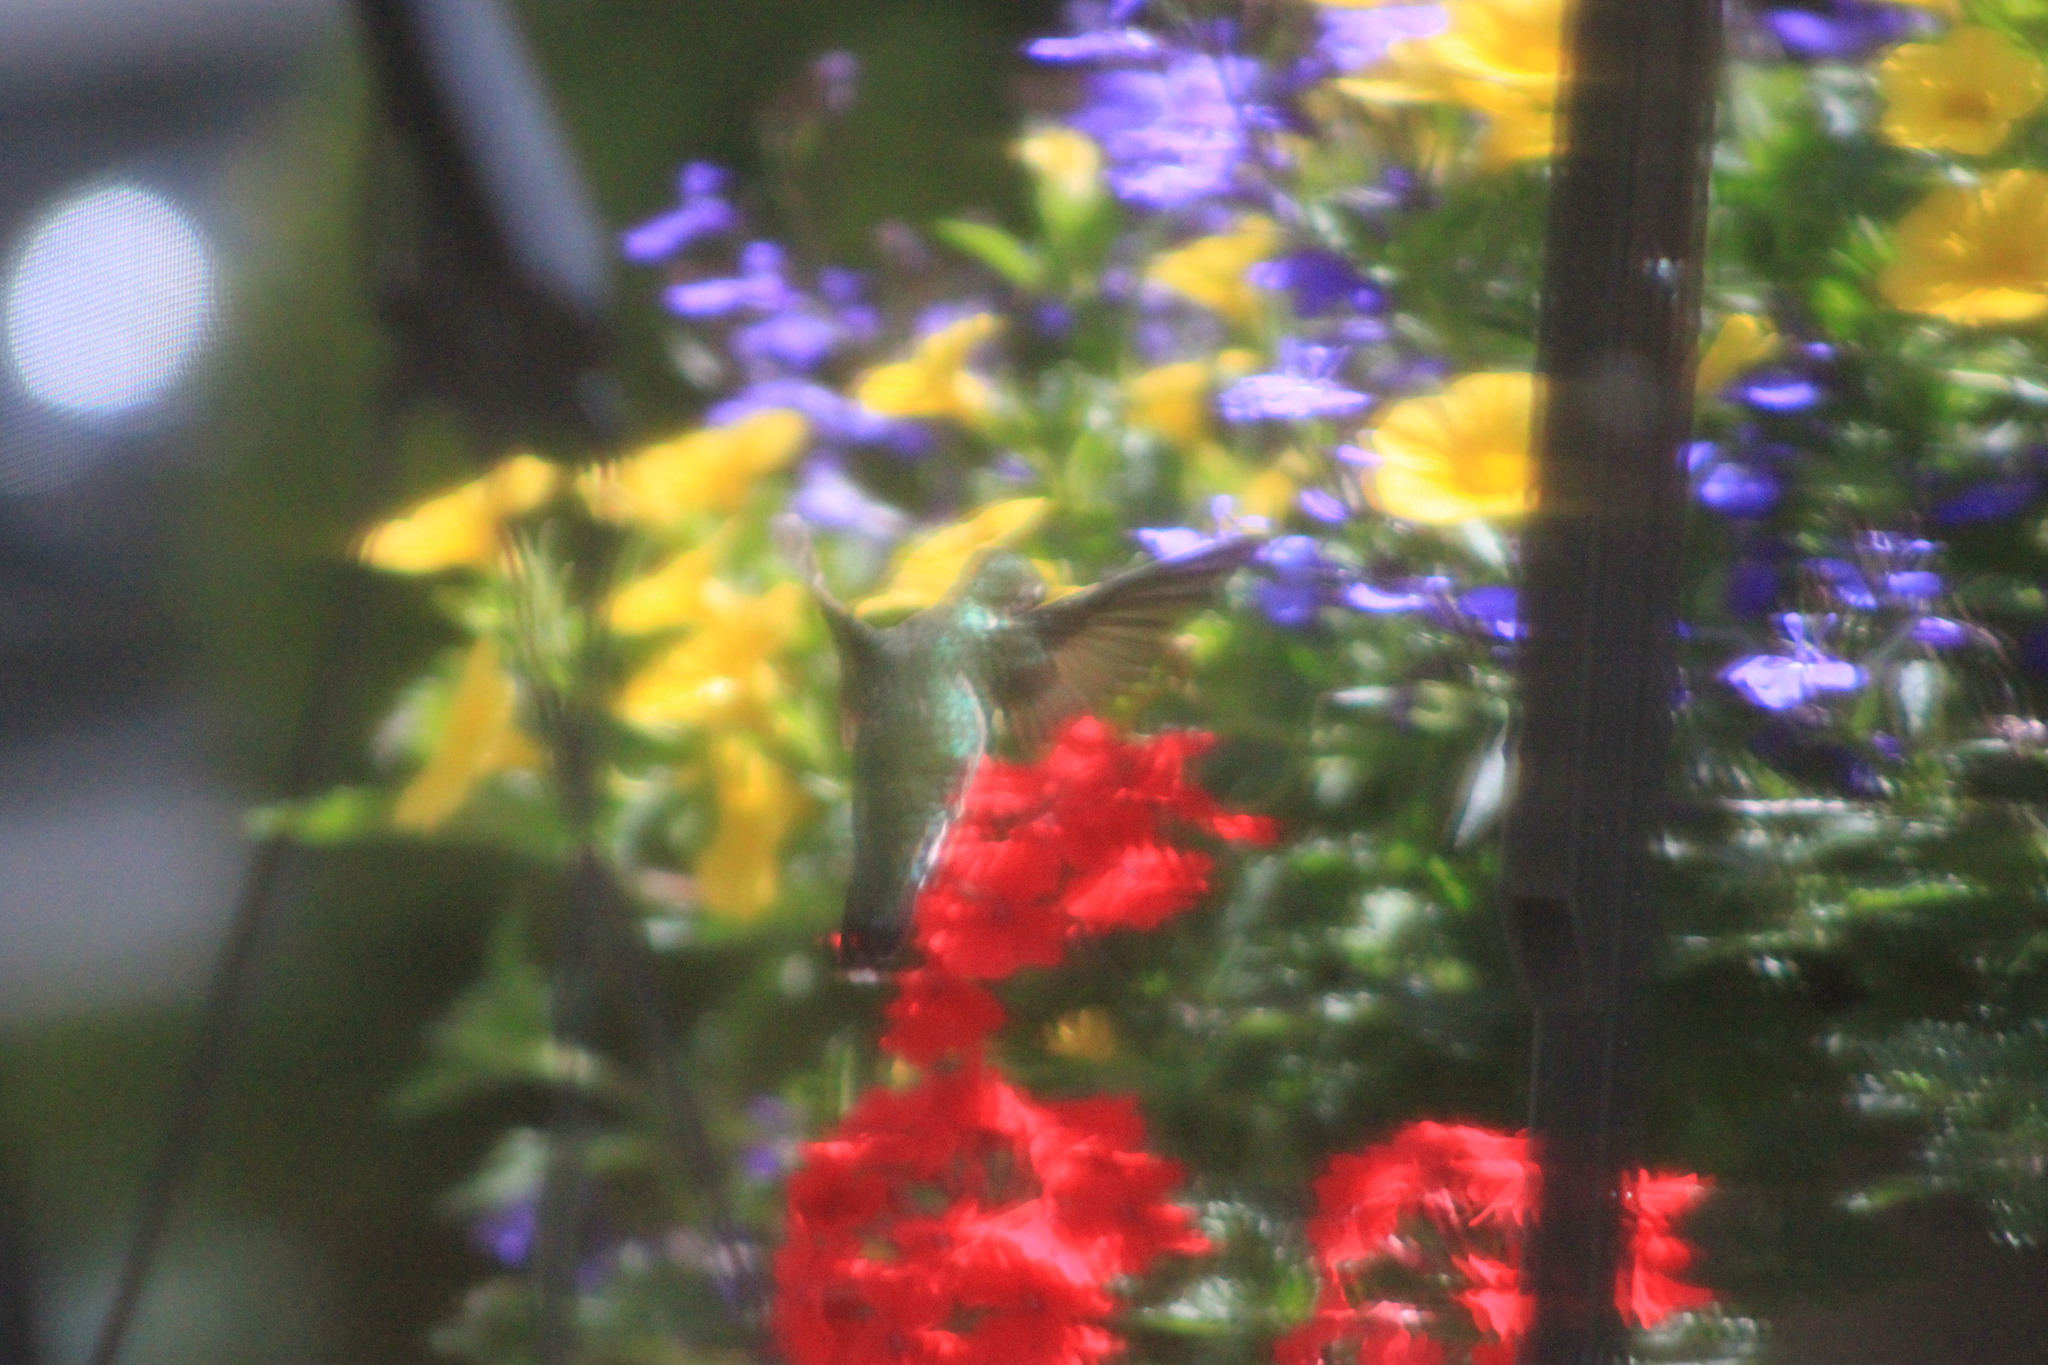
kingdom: Animalia
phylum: Chordata
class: Aves
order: Apodiformes
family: Trochilidae
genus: Archilochus
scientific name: Archilochus colubris
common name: Ruby-throated hummingbird
